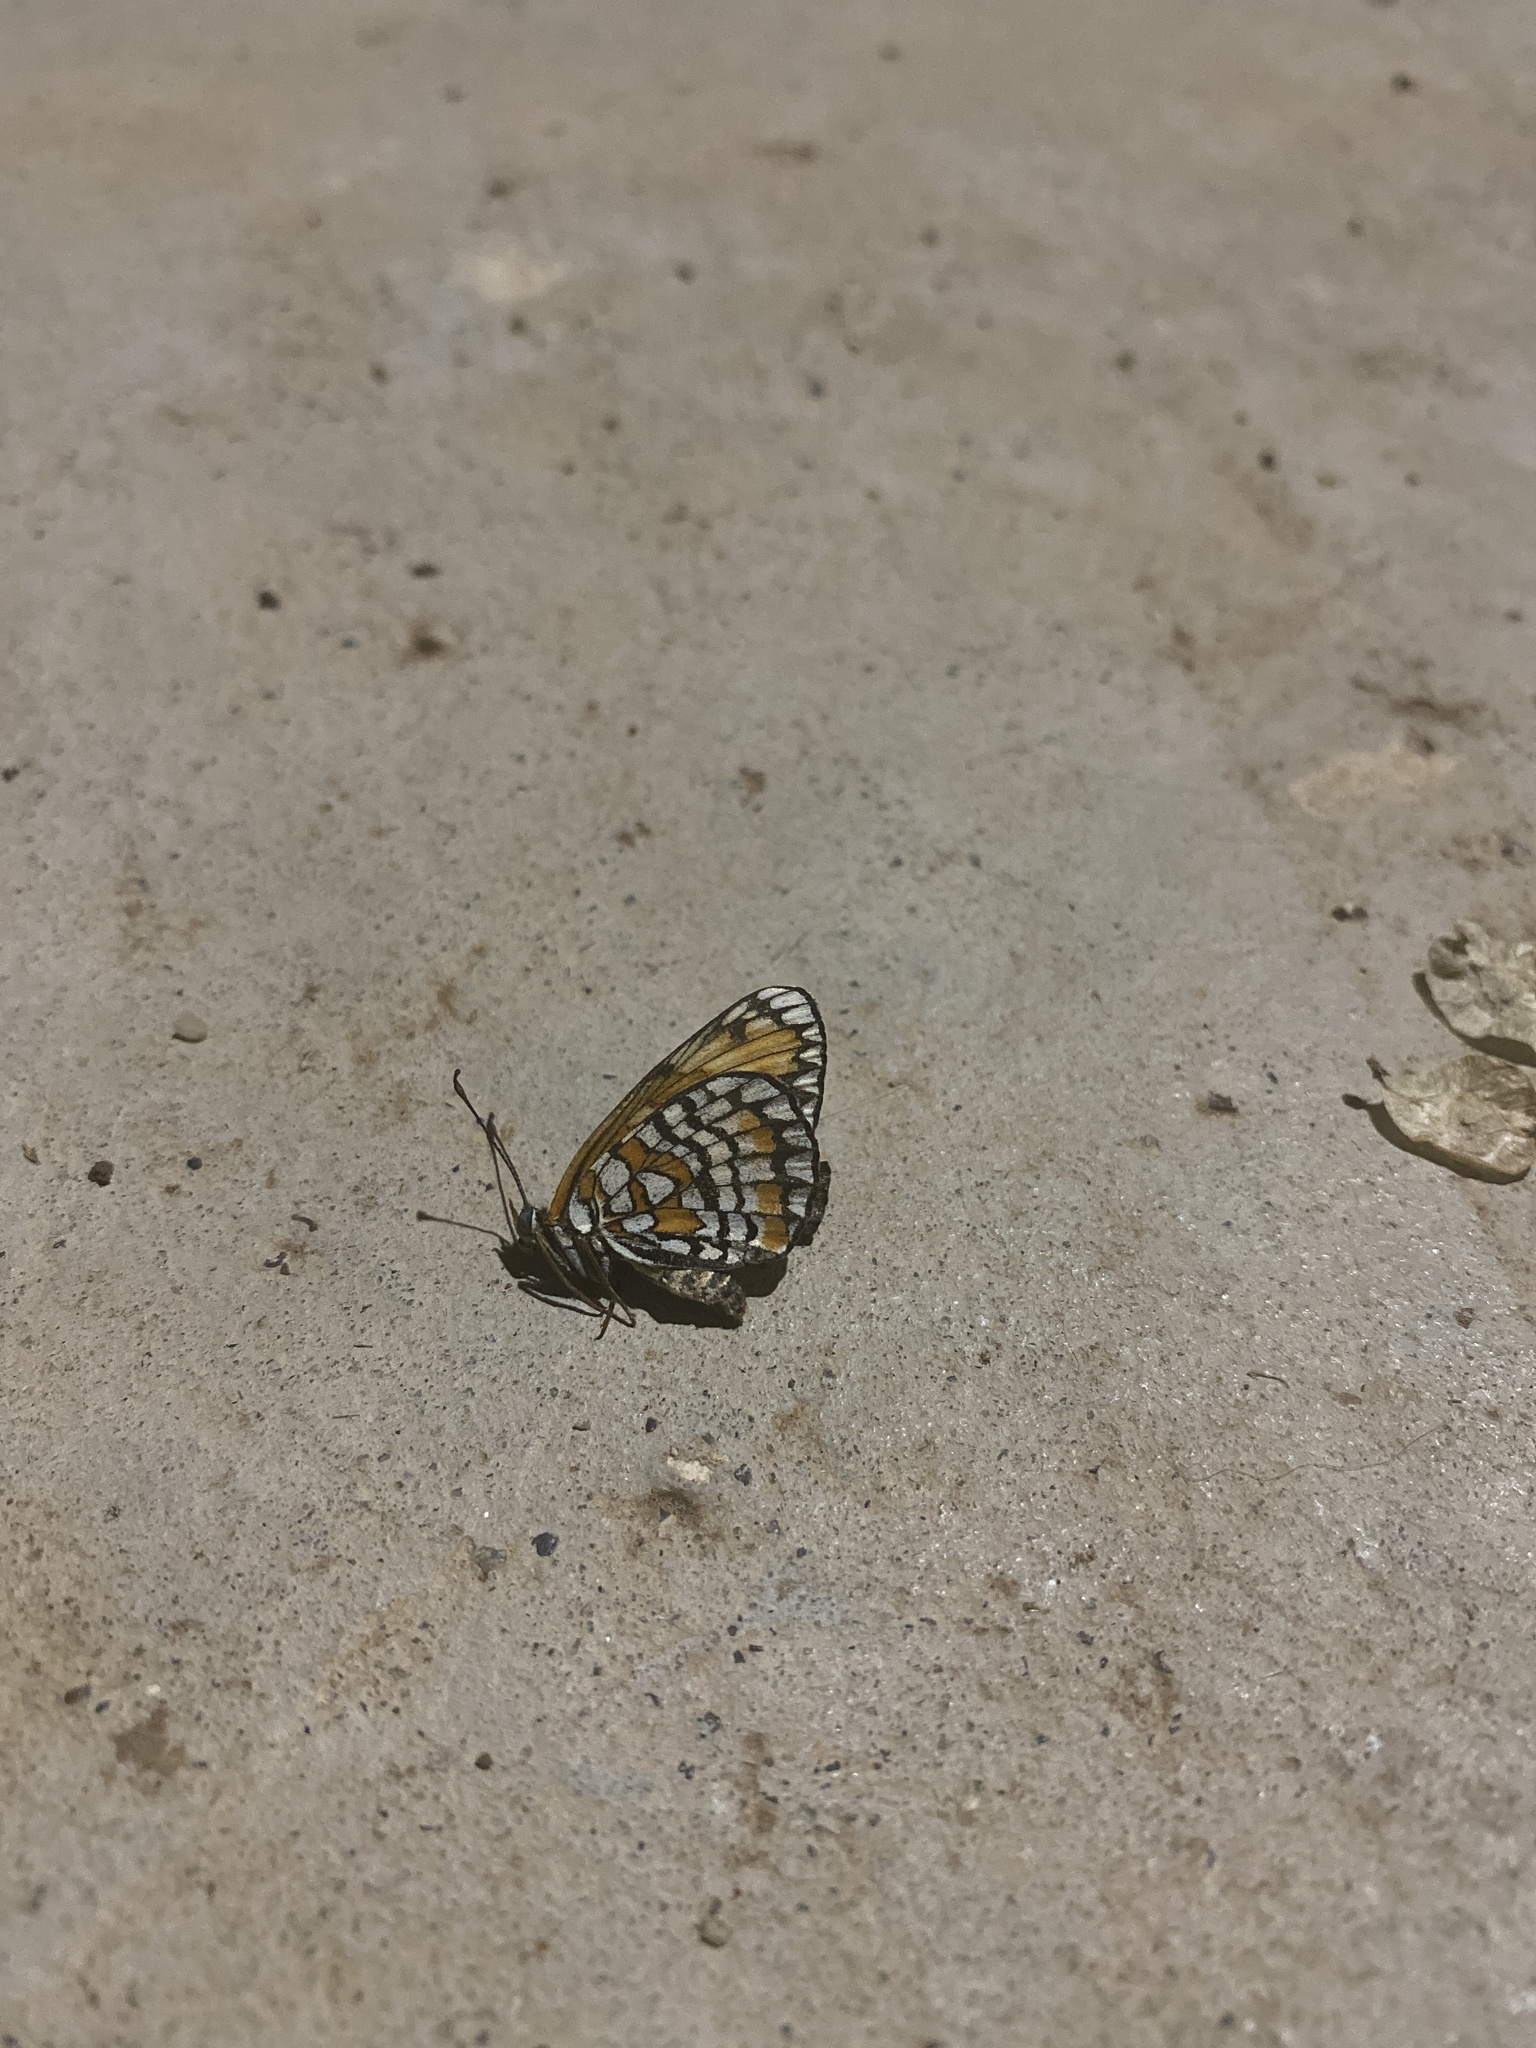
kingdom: Animalia
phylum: Arthropoda
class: Insecta
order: Lepidoptera
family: Nymphalidae
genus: Chlosyne
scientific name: Chlosyne definita
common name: Definite patch
